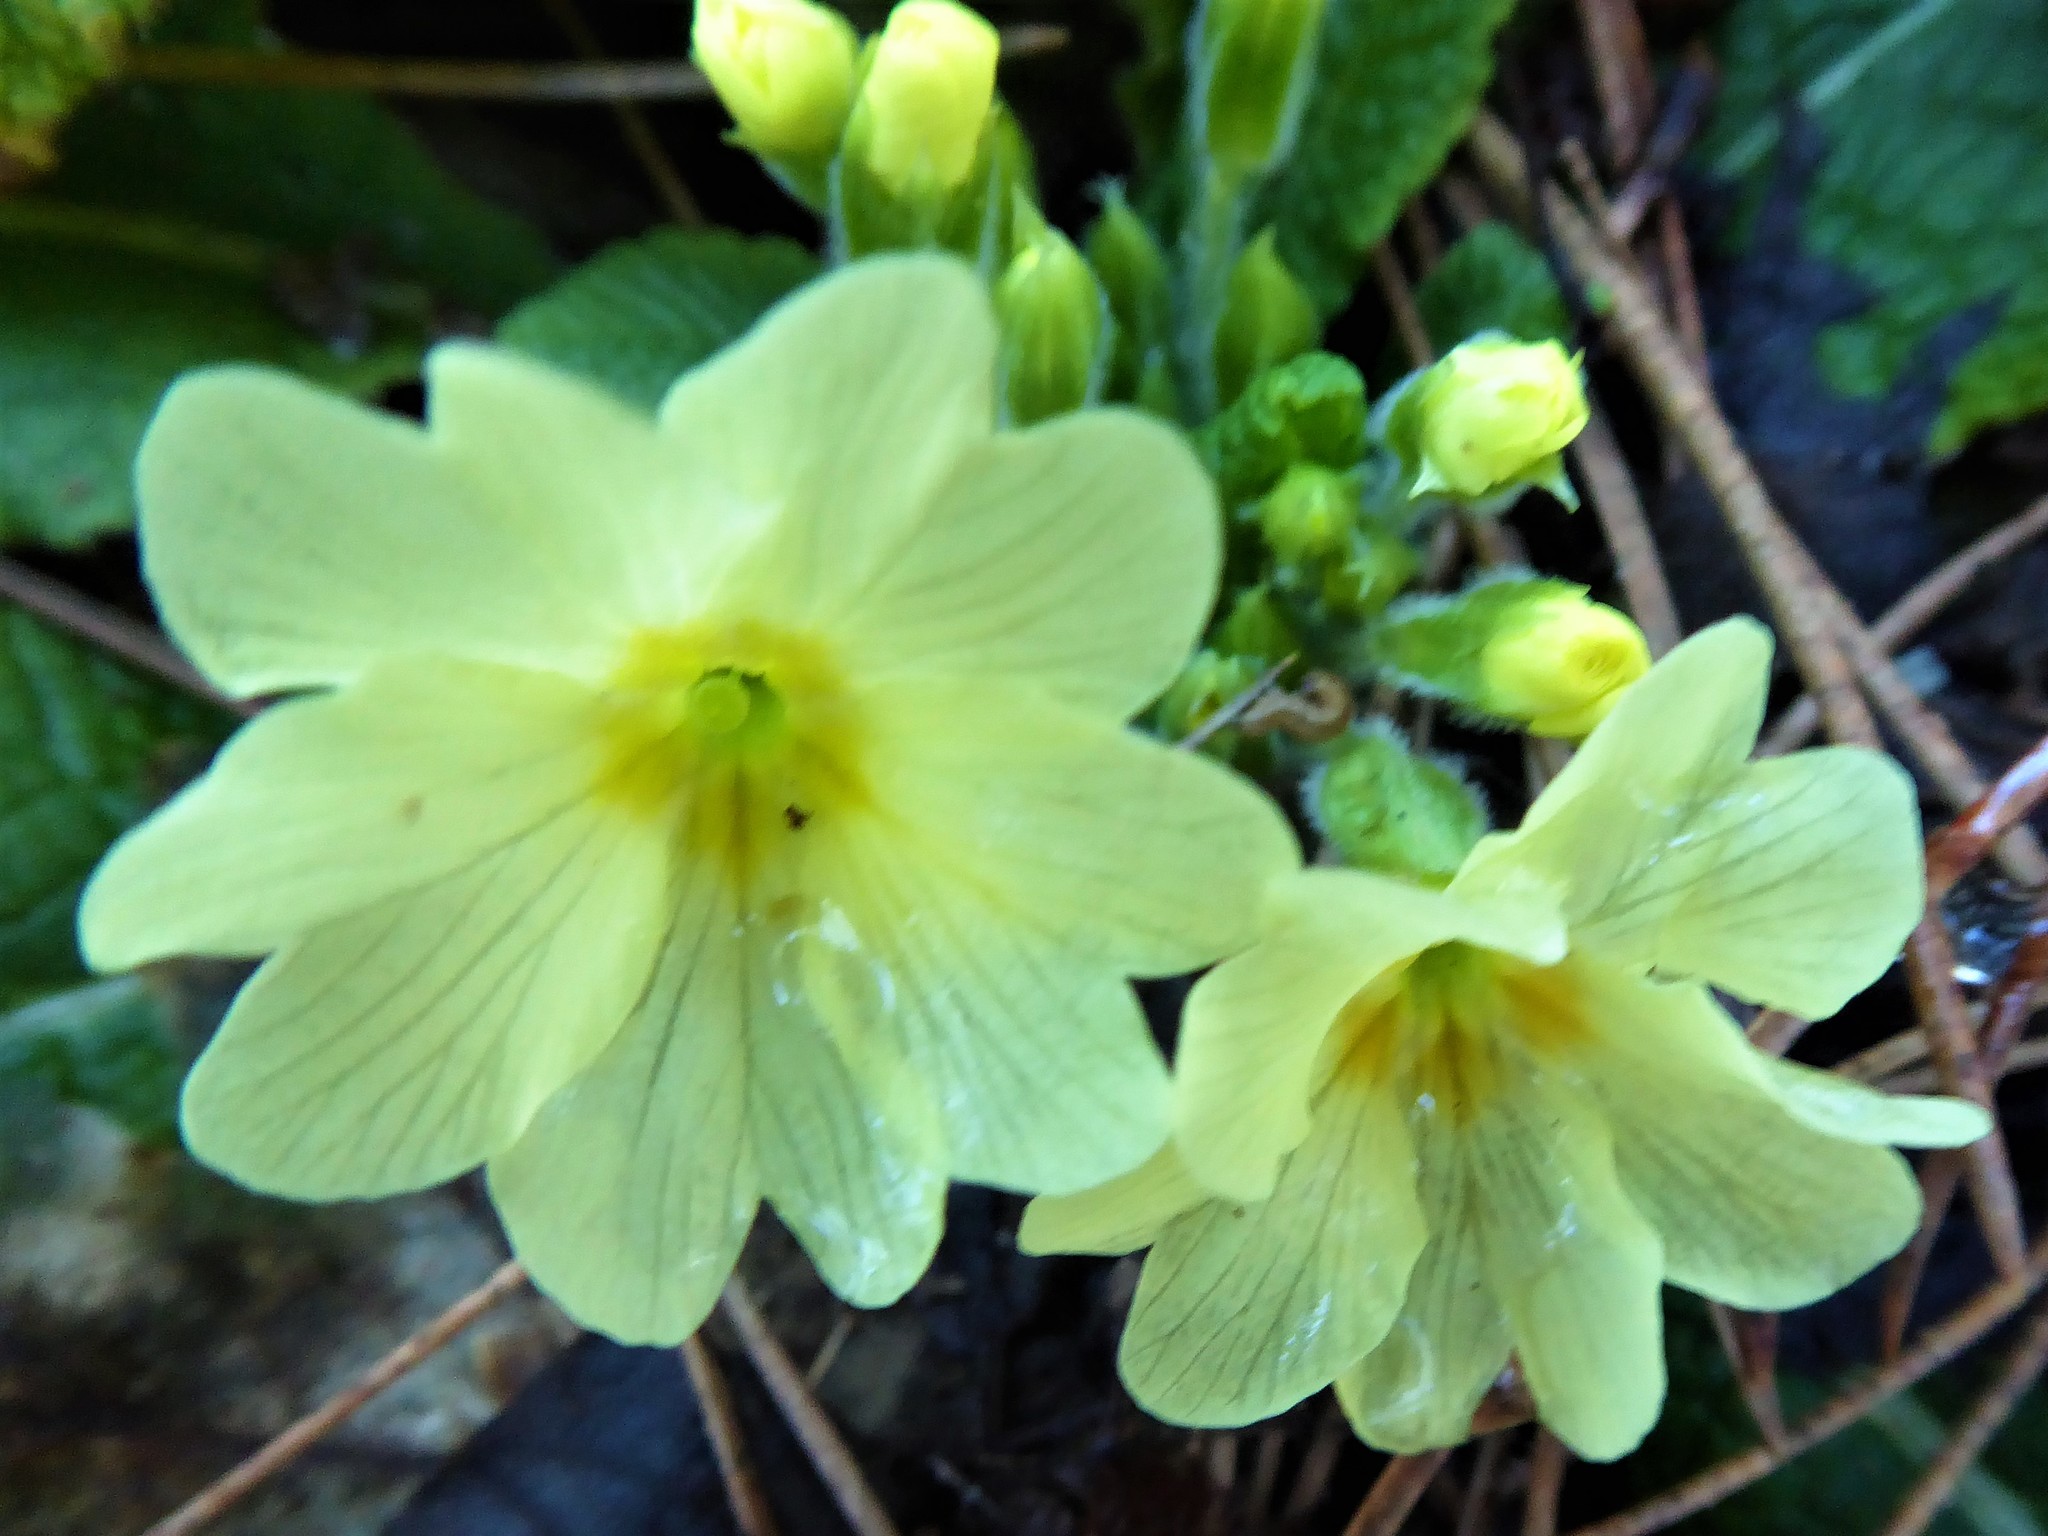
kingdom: Plantae
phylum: Tracheophyta
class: Magnoliopsida
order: Ericales
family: Primulaceae
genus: Primula
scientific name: Primula vulgaris
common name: Primrose
